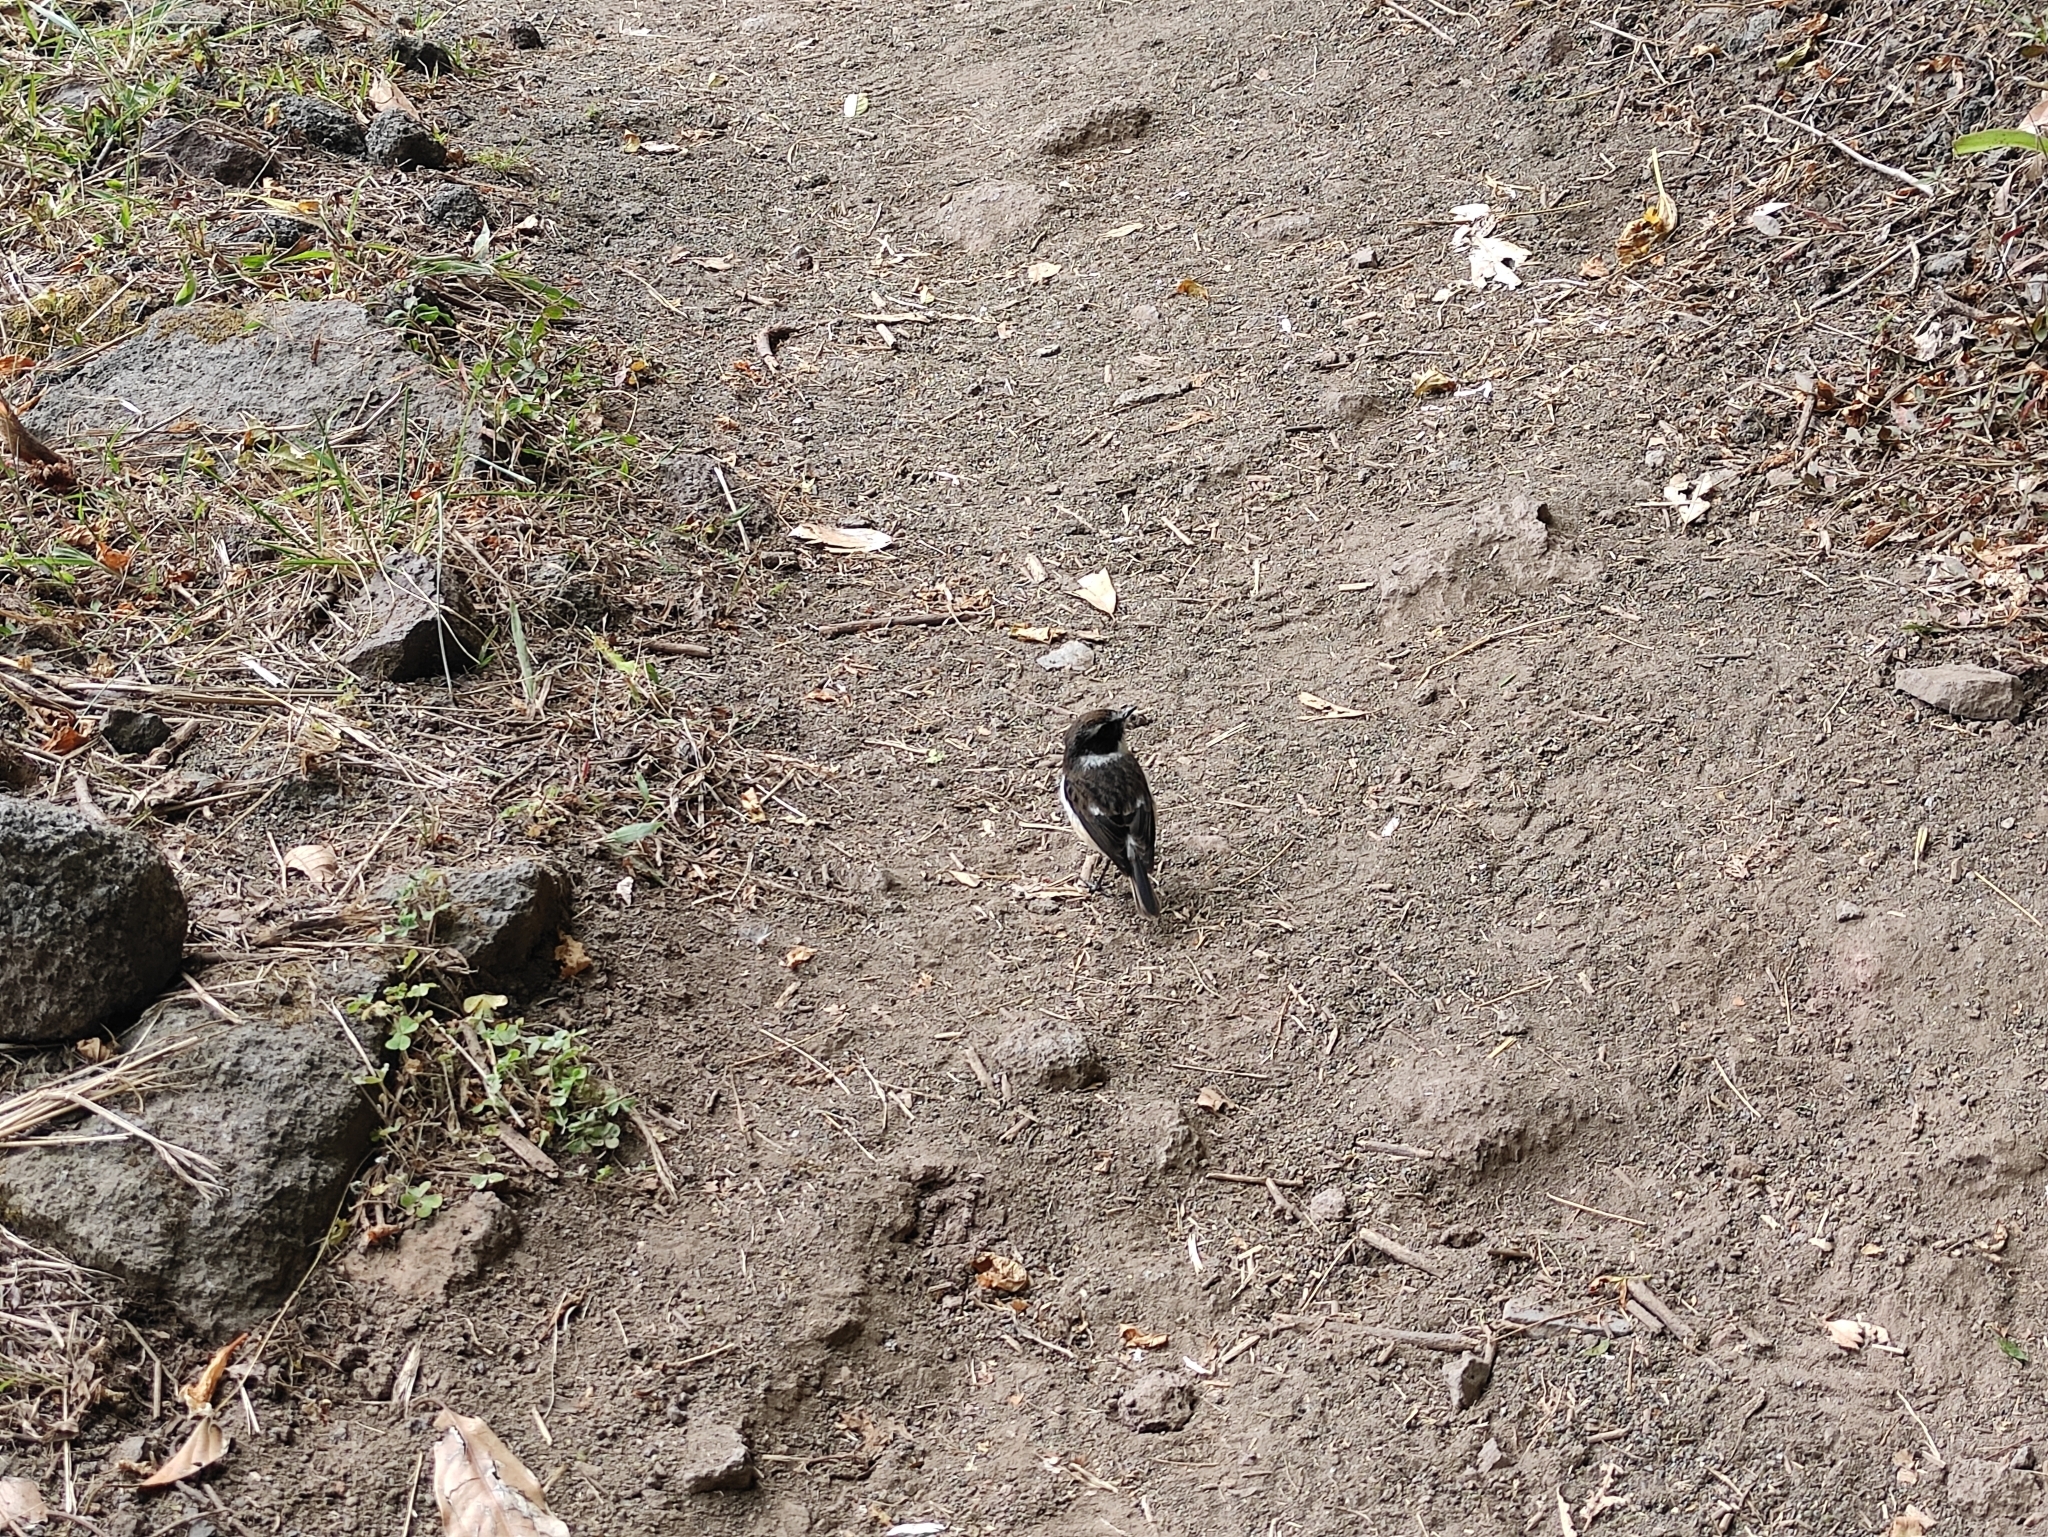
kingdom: Animalia
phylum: Chordata
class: Aves
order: Passeriformes
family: Muscicapidae
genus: Saxicola
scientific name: Saxicola tectes
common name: Reunion stonechat
